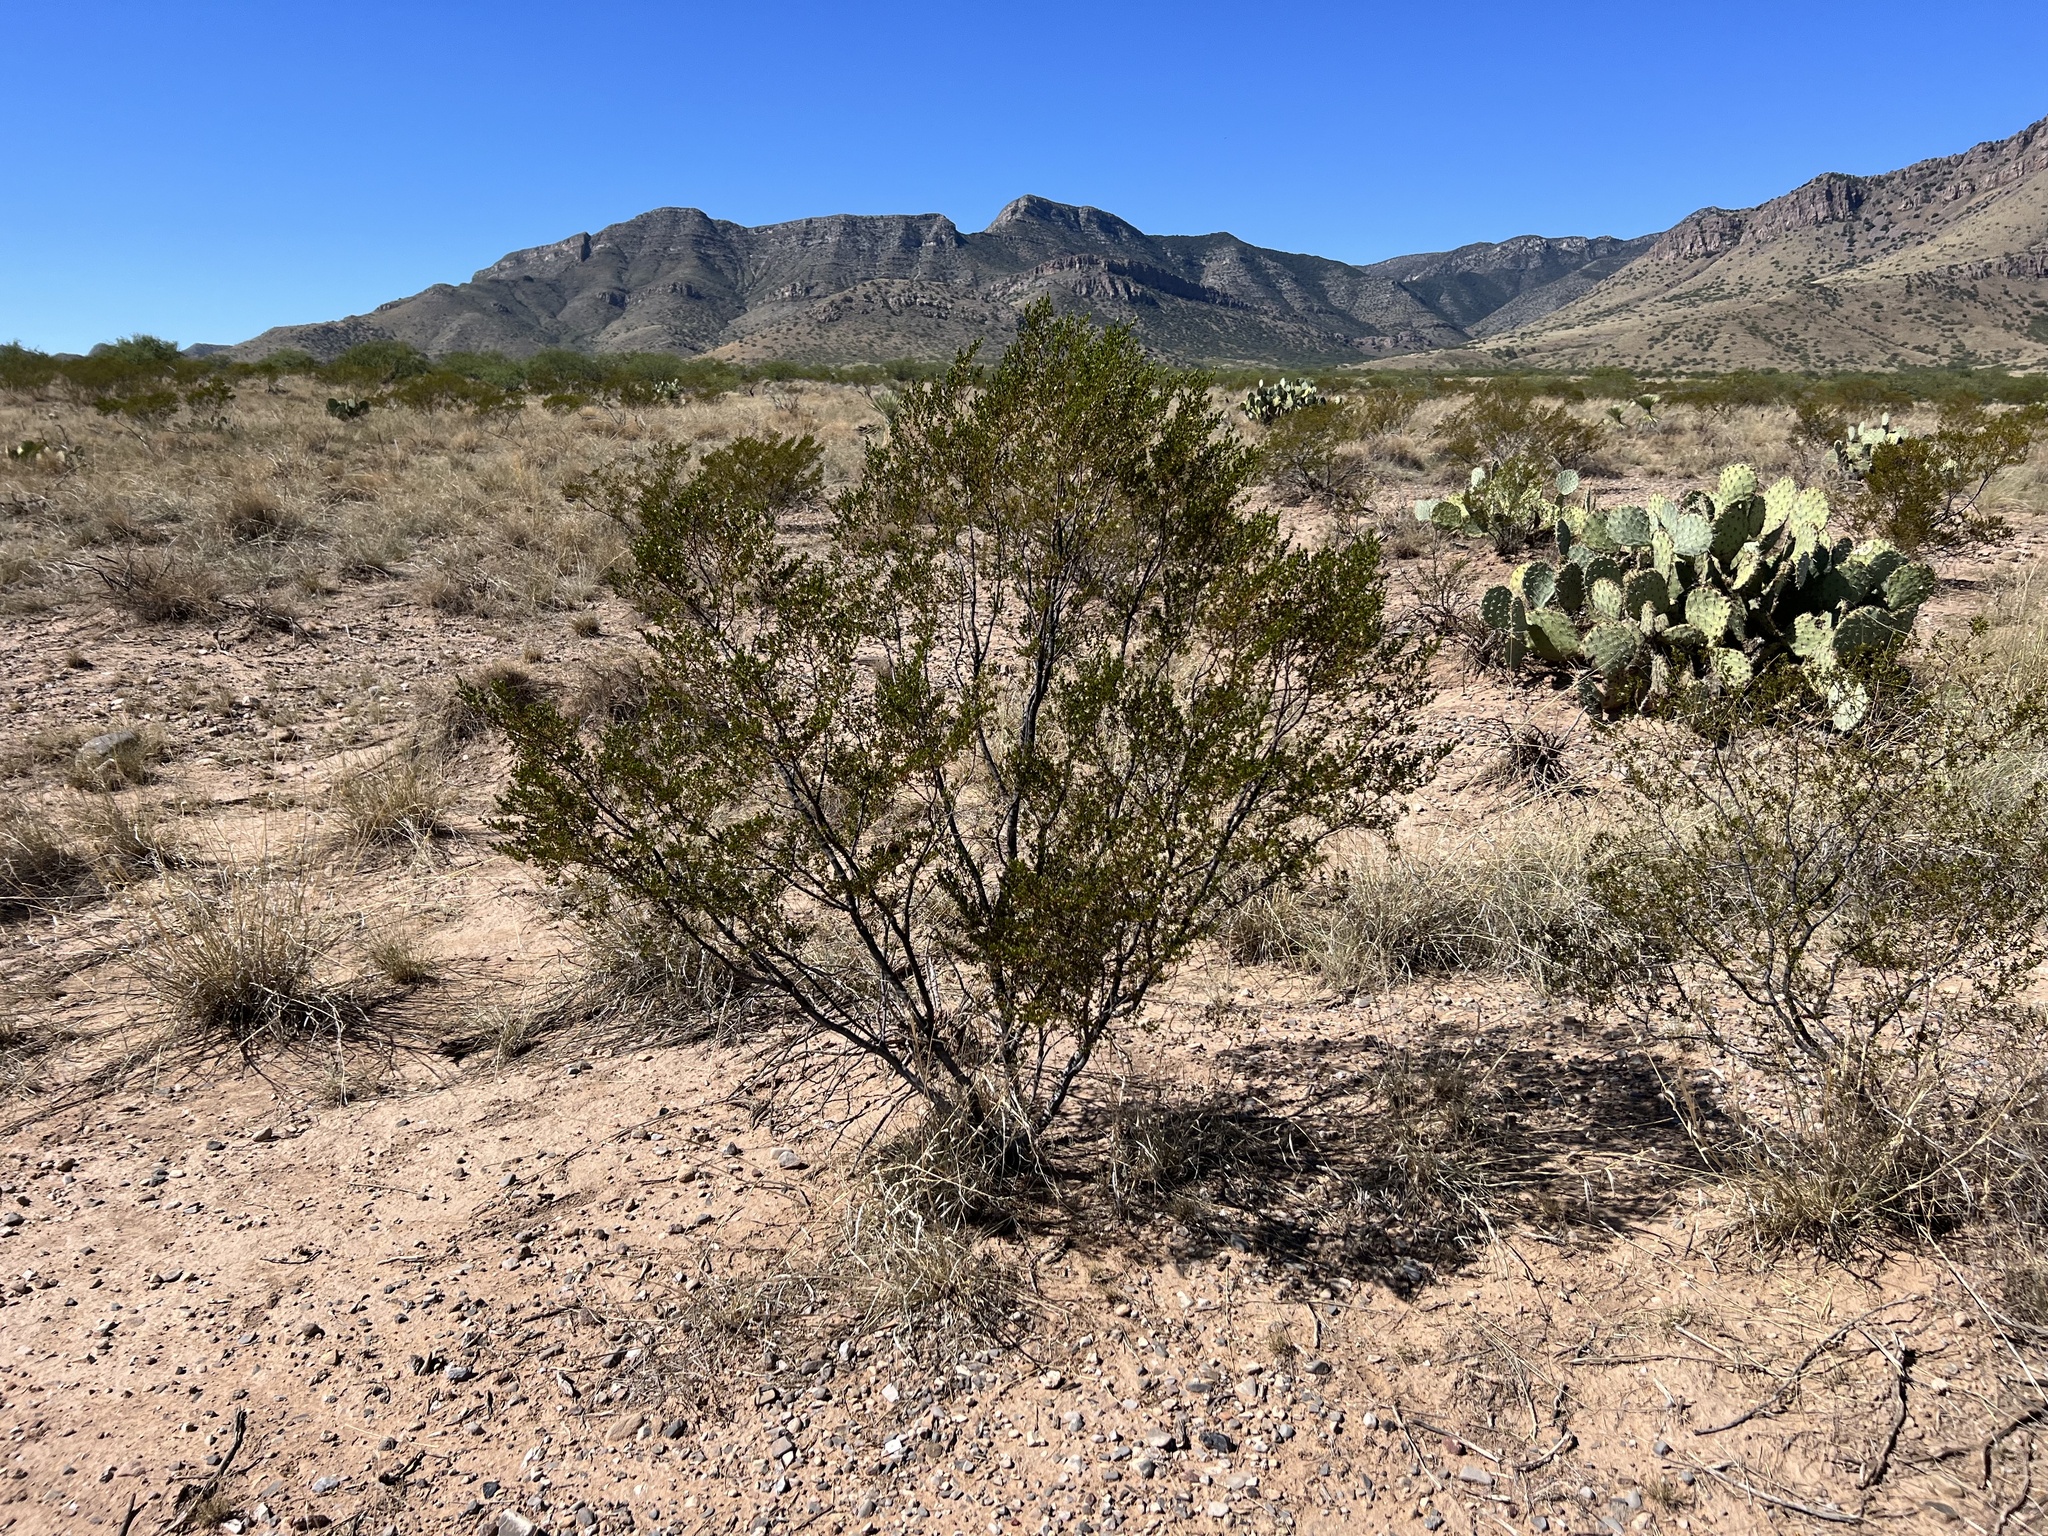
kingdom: Plantae
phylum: Tracheophyta
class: Magnoliopsida
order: Zygophyllales
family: Zygophyllaceae
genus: Larrea
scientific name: Larrea tridentata
